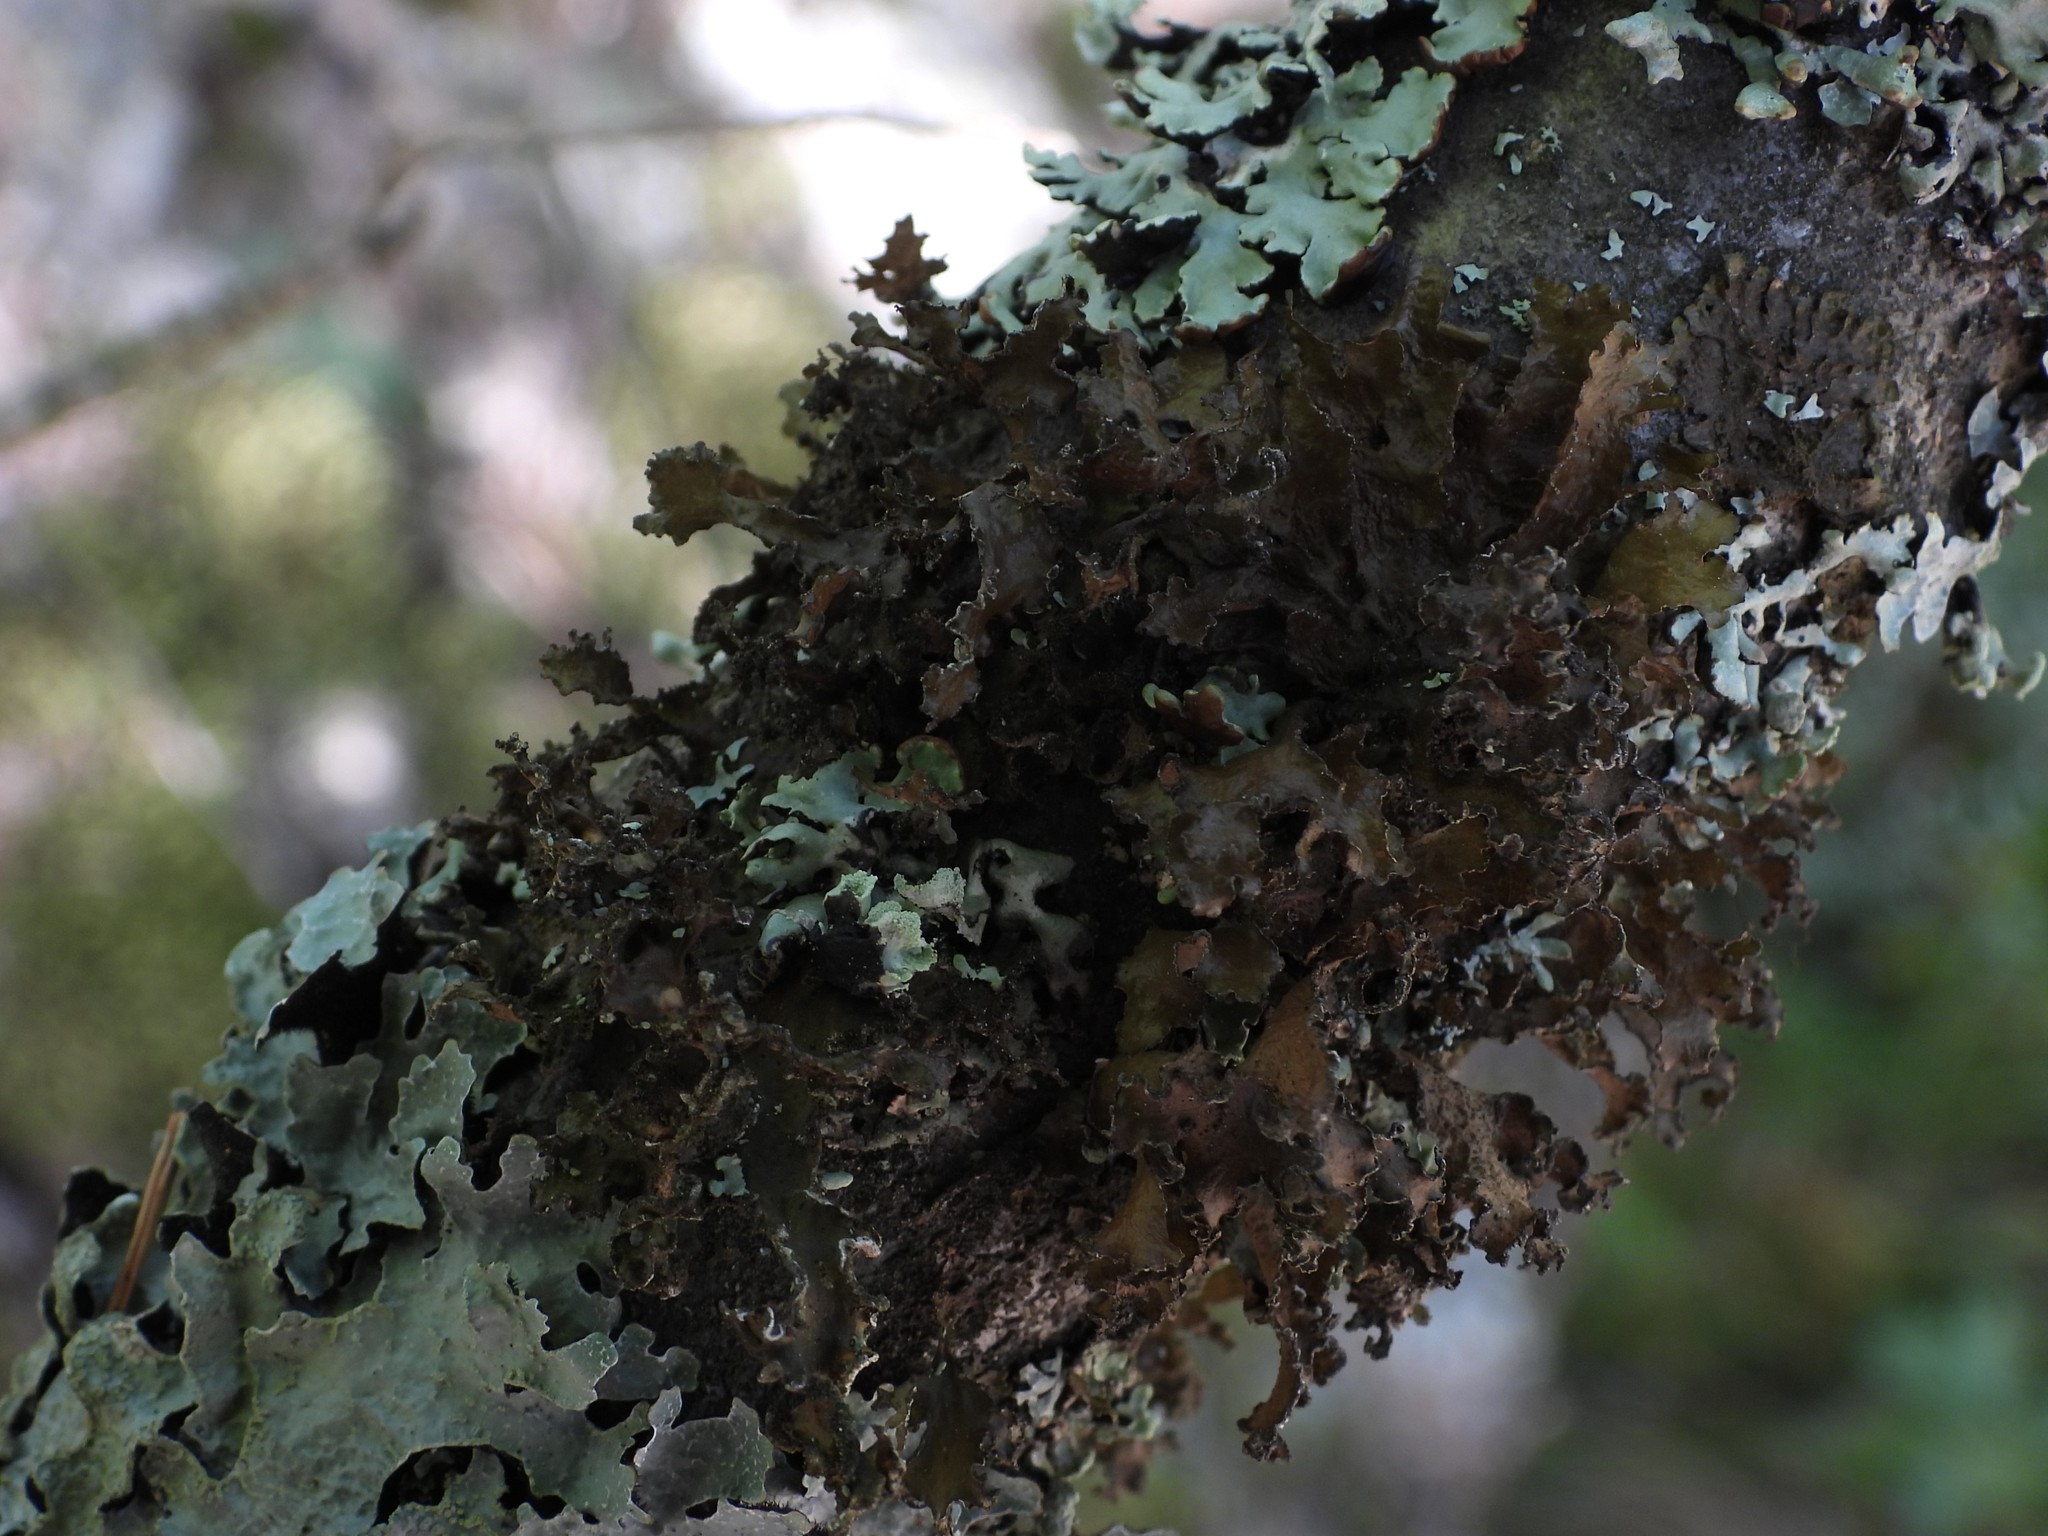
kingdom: Fungi
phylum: Ascomycota
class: Lecanoromycetes
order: Lecanorales
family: Parmeliaceae
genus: Nephromopsis
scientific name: Nephromopsis chlorophylla
